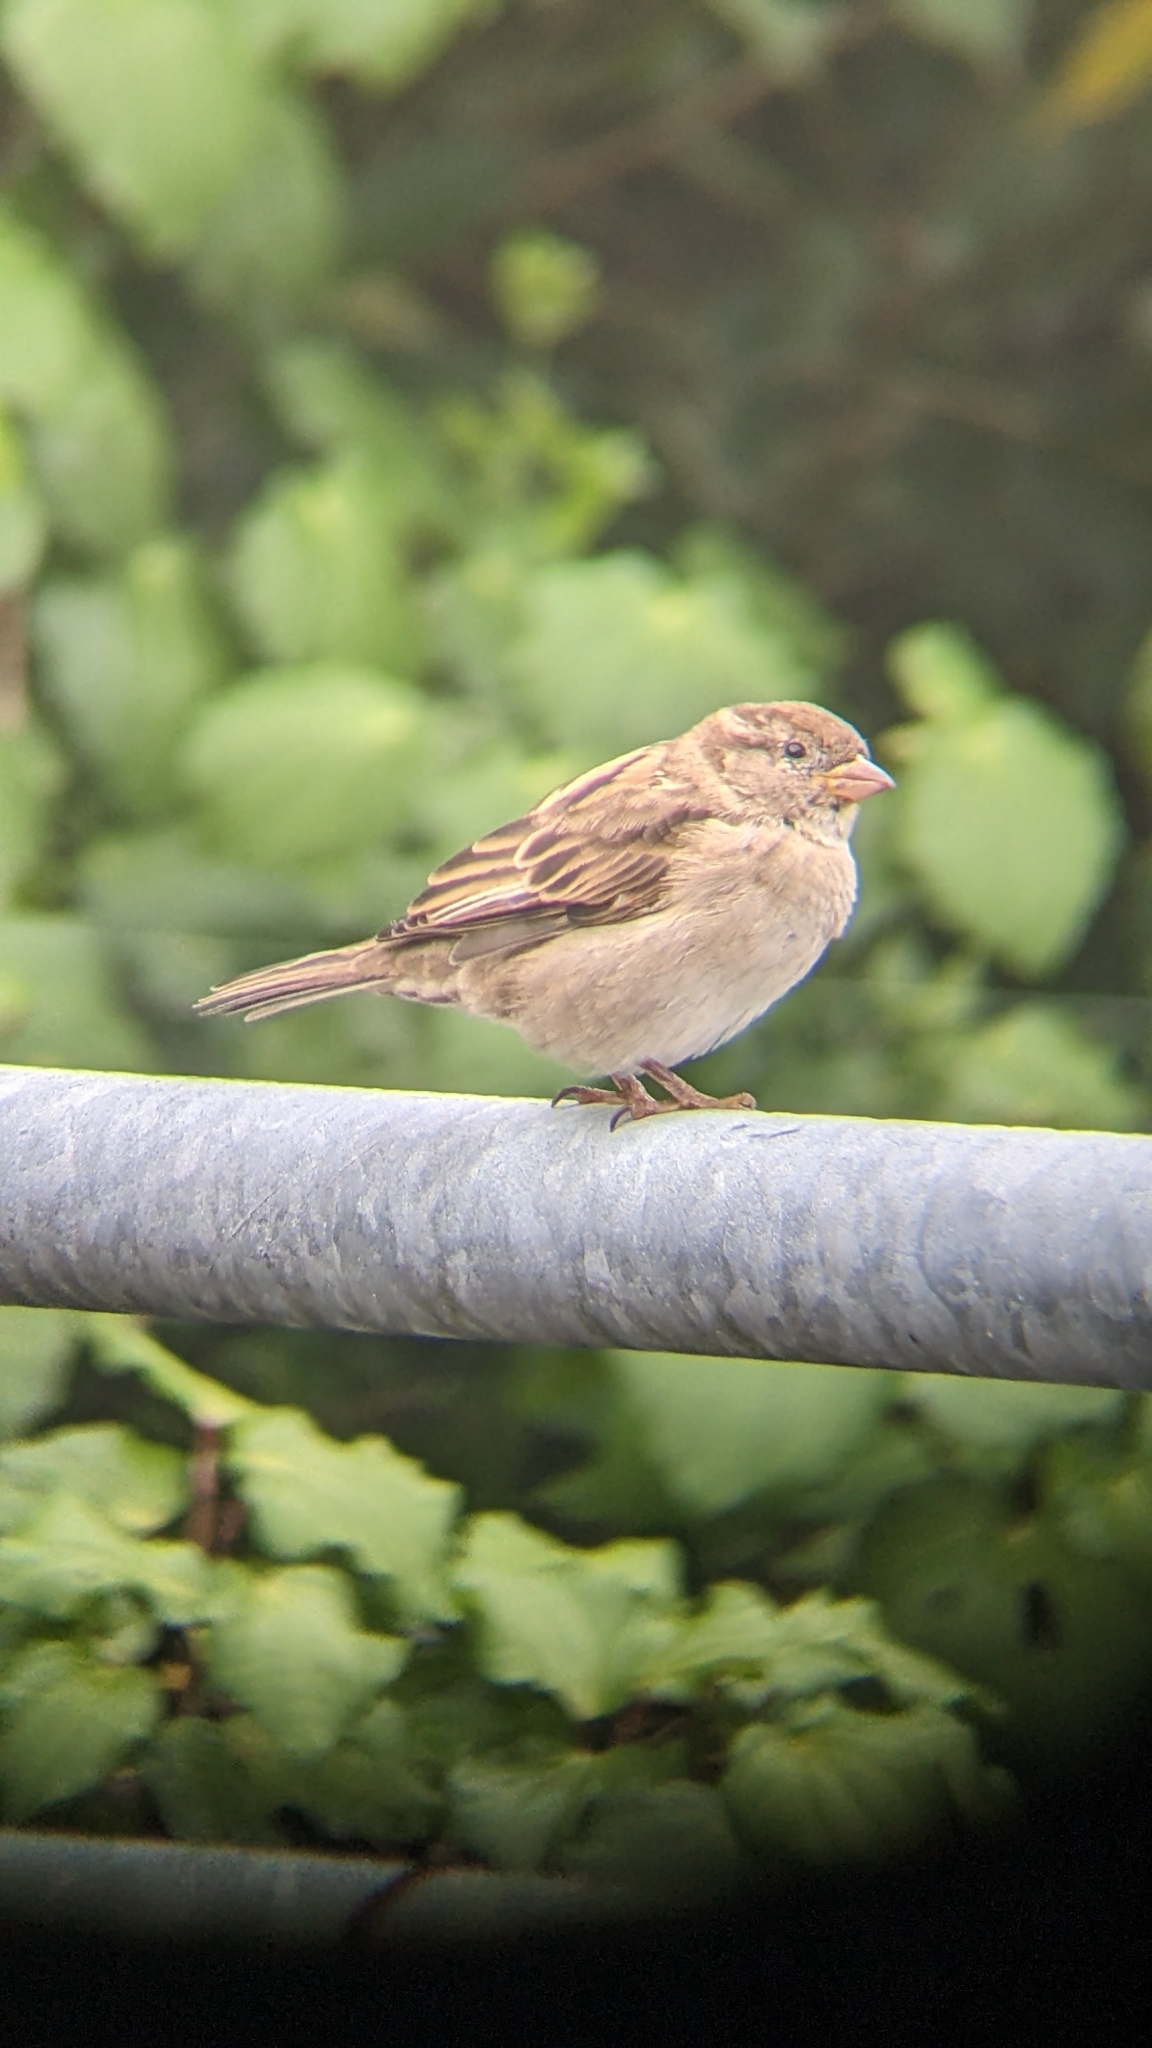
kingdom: Animalia
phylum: Chordata
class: Aves
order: Passeriformes
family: Passeridae
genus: Passer
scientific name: Passer domesticus
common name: House sparrow
